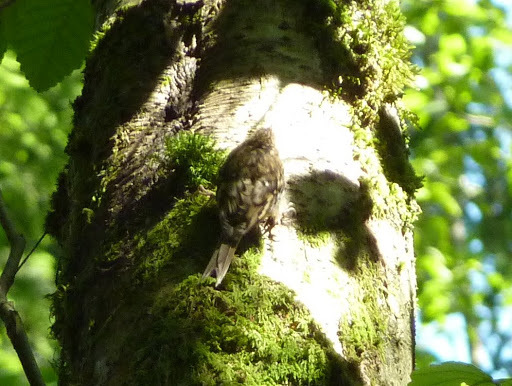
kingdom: Animalia
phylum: Chordata
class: Aves
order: Passeriformes
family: Certhiidae
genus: Certhia
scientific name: Certhia americana
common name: Brown creeper
